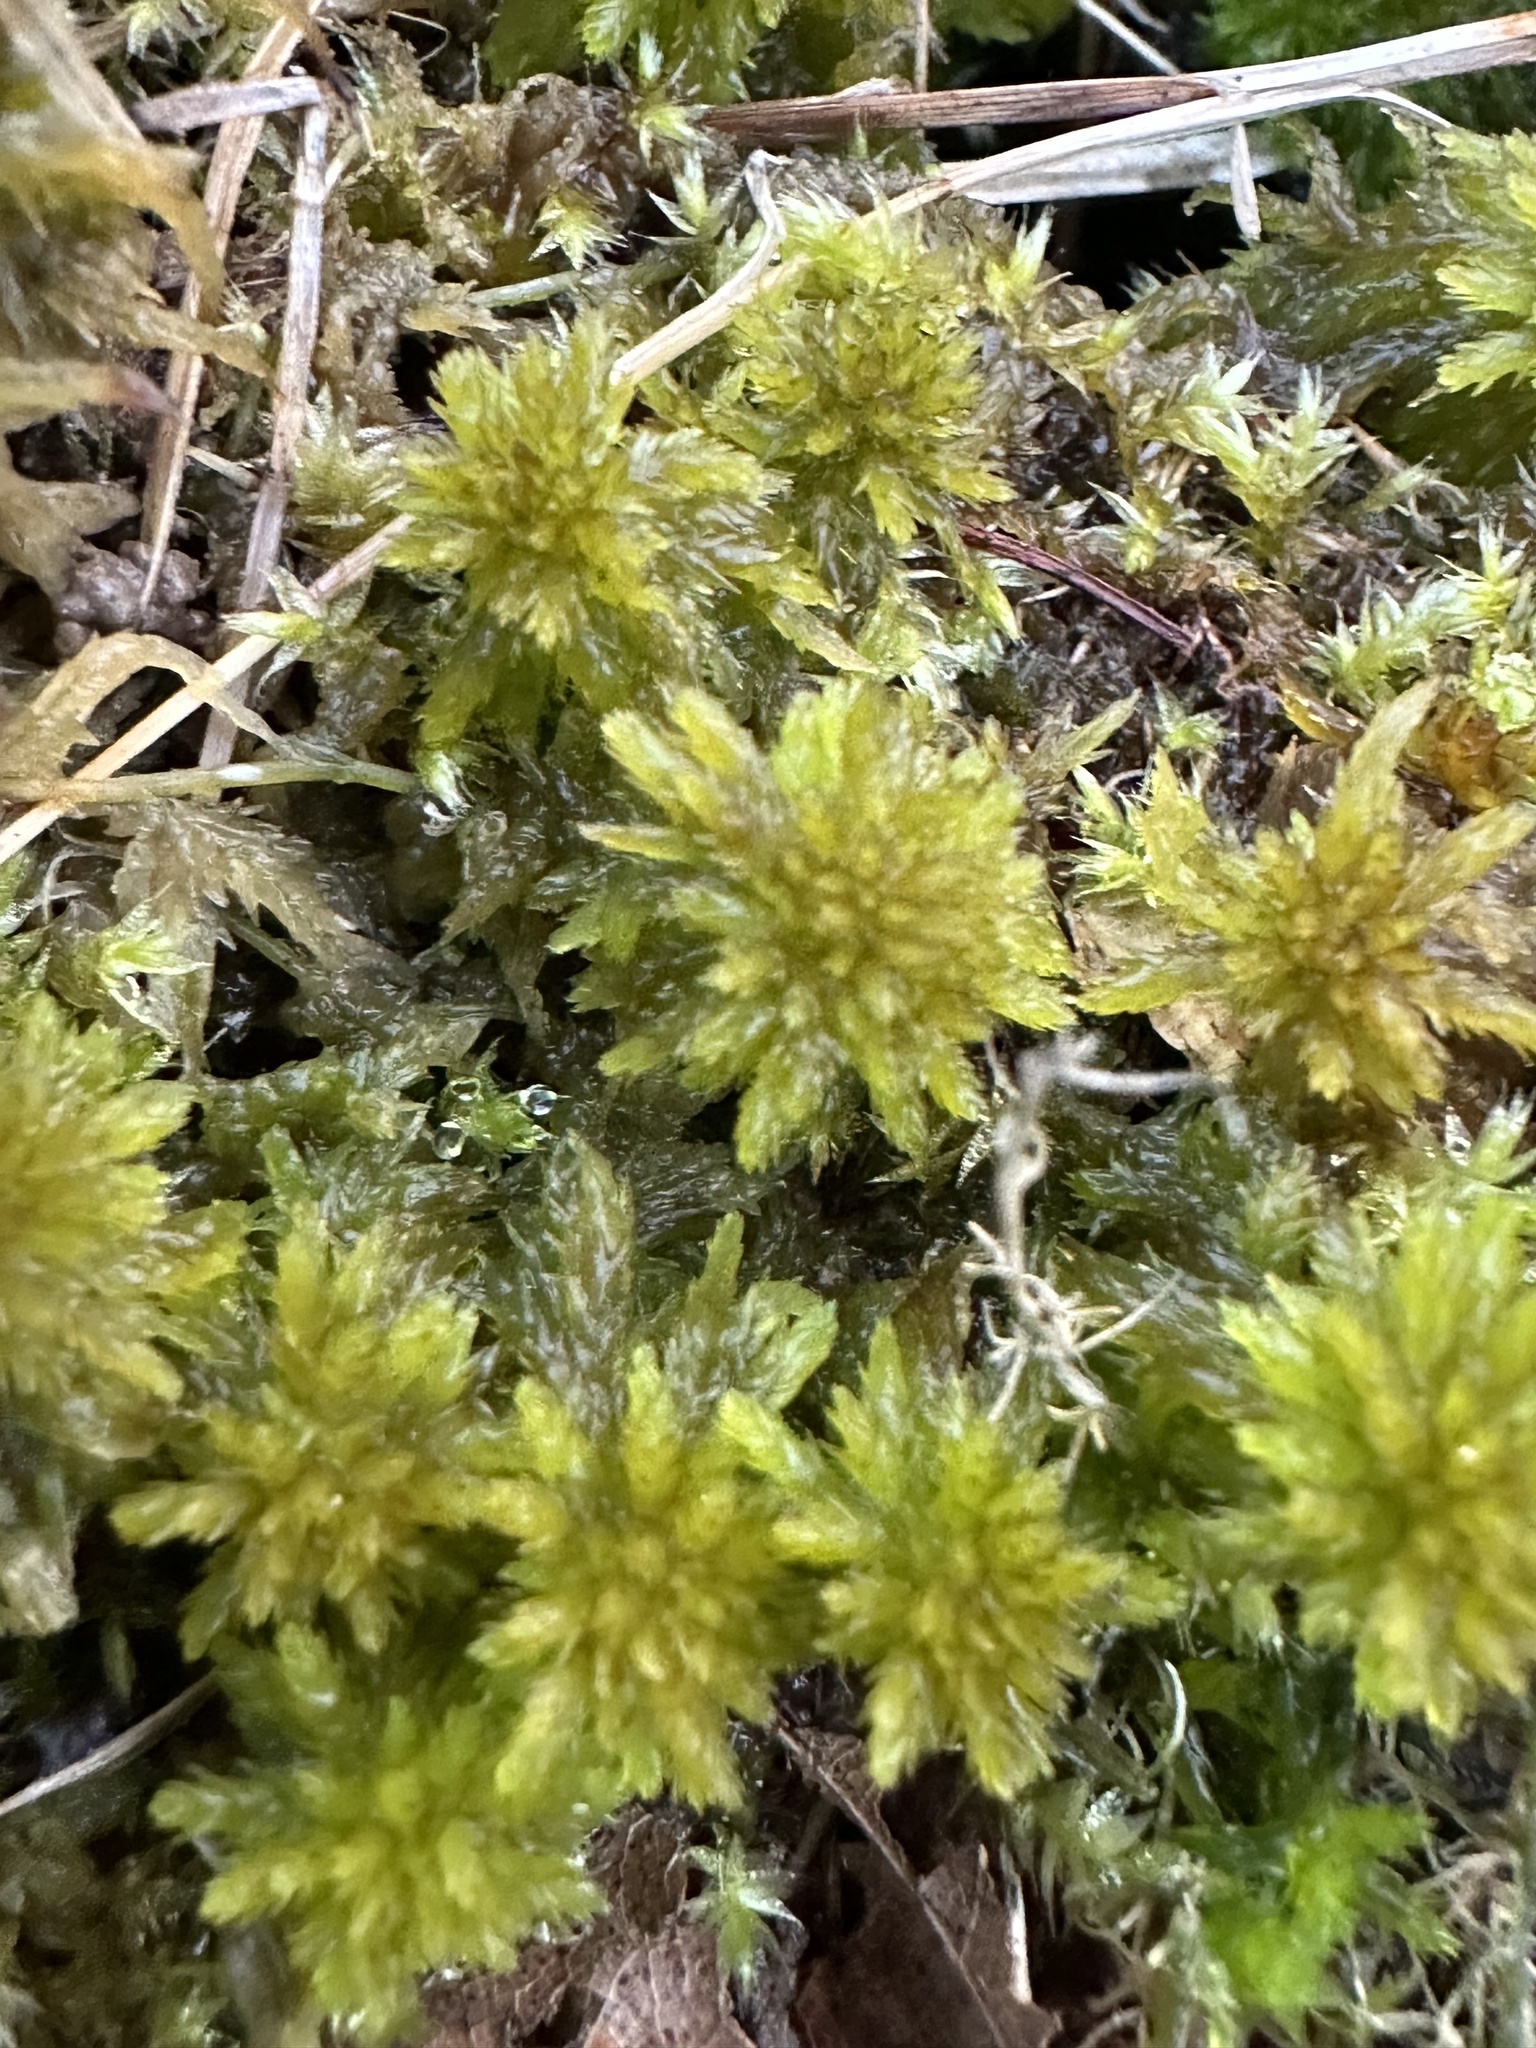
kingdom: Plantae
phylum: Bryophyta
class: Sphagnopsida
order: Sphagnales
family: Sphagnaceae
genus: Sphagnum
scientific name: Sphagnum missouricum
